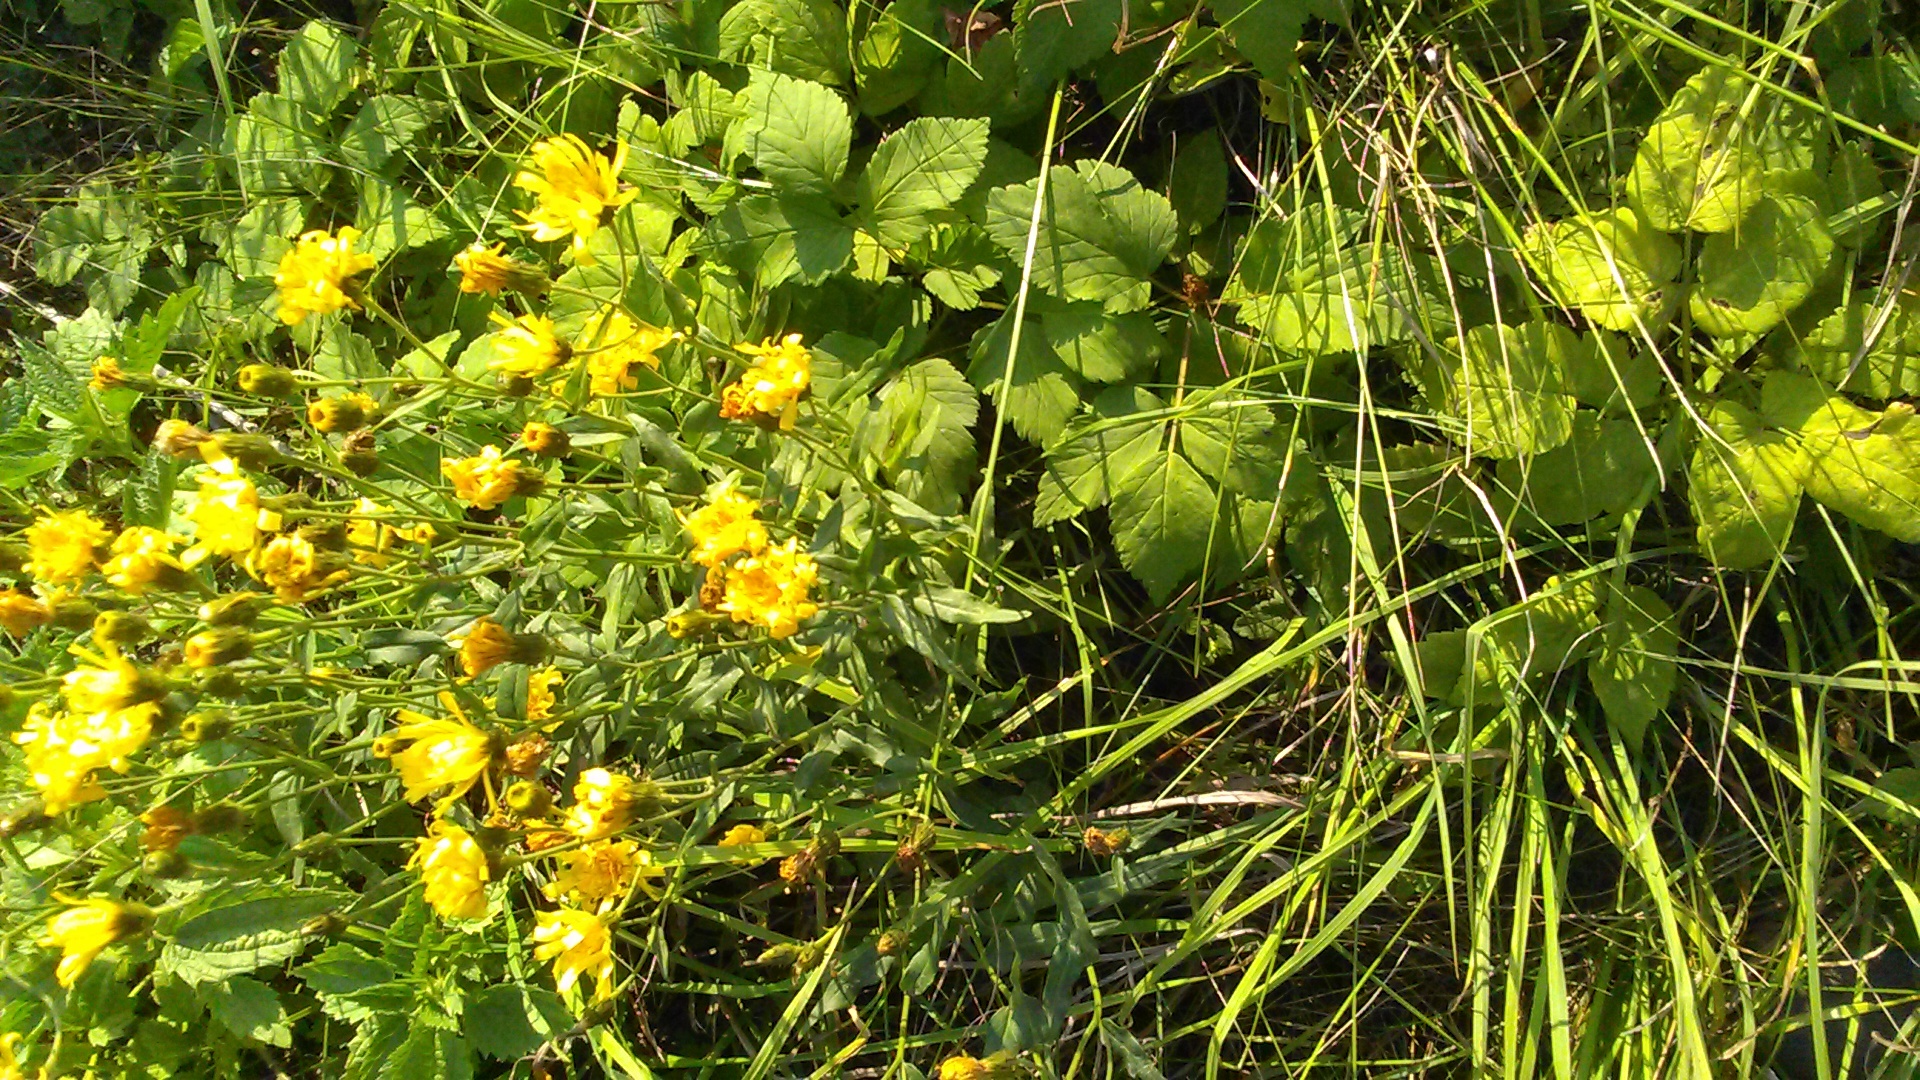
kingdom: Plantae
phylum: Tracheophyta
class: Magnoliopsida
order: Asterales
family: Asteraceae
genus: Hieracium
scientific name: Hieracium umbellatum
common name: Northern hawkweed
